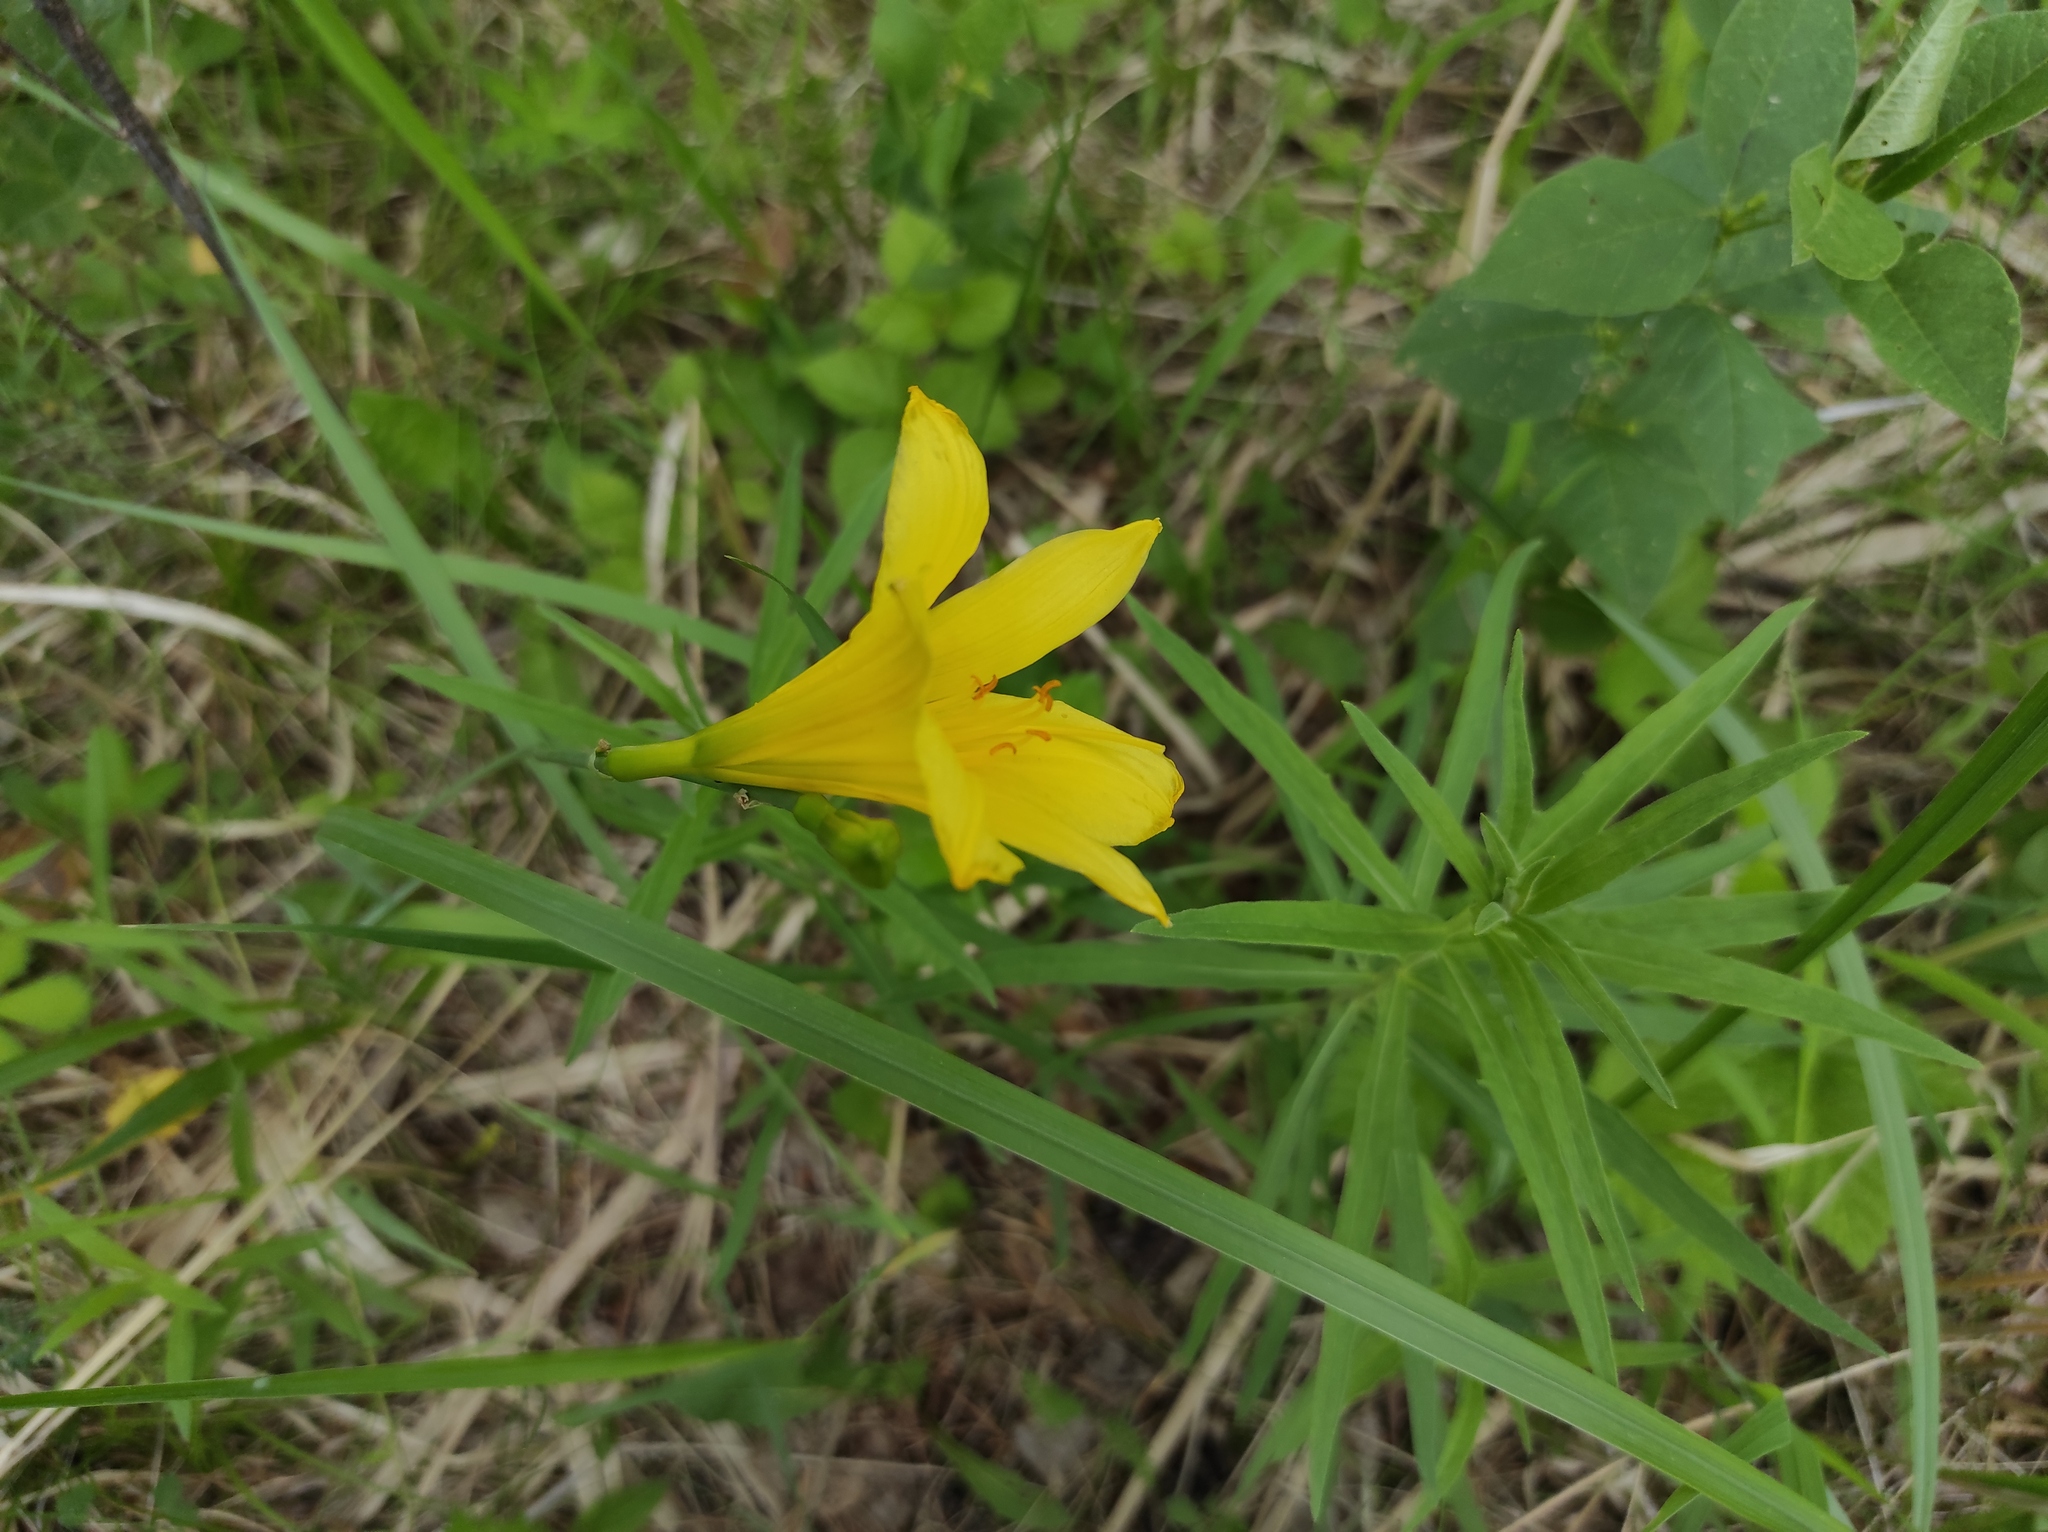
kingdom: Plantae
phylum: Tracheophyta
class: Liliopsida
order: Asparagales
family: Asphodelaceae
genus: Hemerocallis
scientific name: Hemerocallis minor
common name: Small daylily
